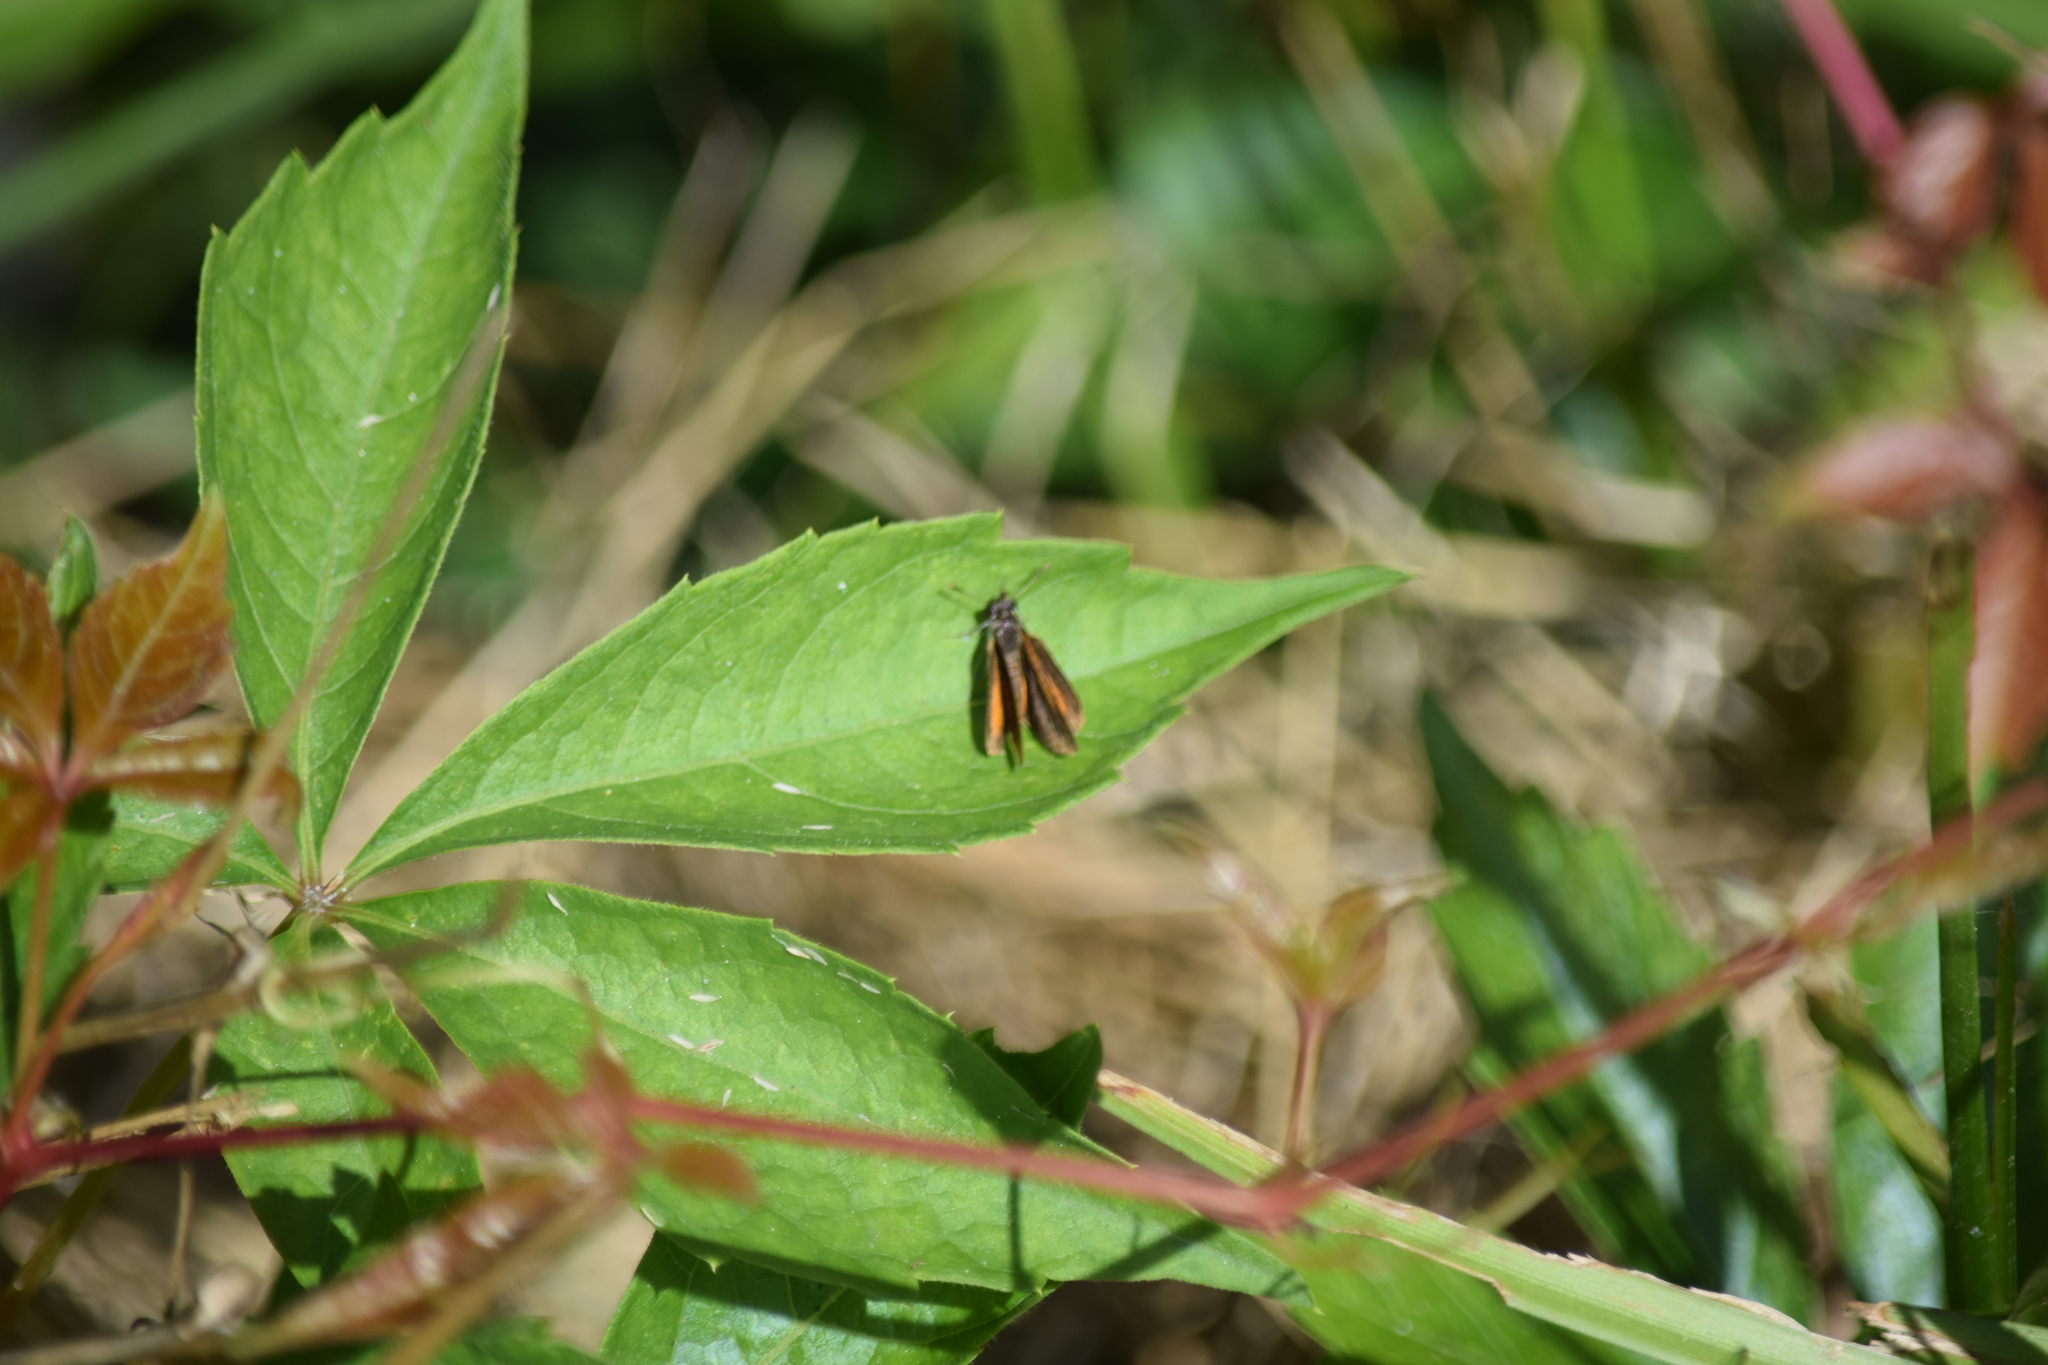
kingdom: Animalia
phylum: Arthropoda
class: Insecta
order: Lepidoptera
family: Hesperiidae
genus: Ancyloxypha
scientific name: Ancyloxypha numitor
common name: Least skipper
